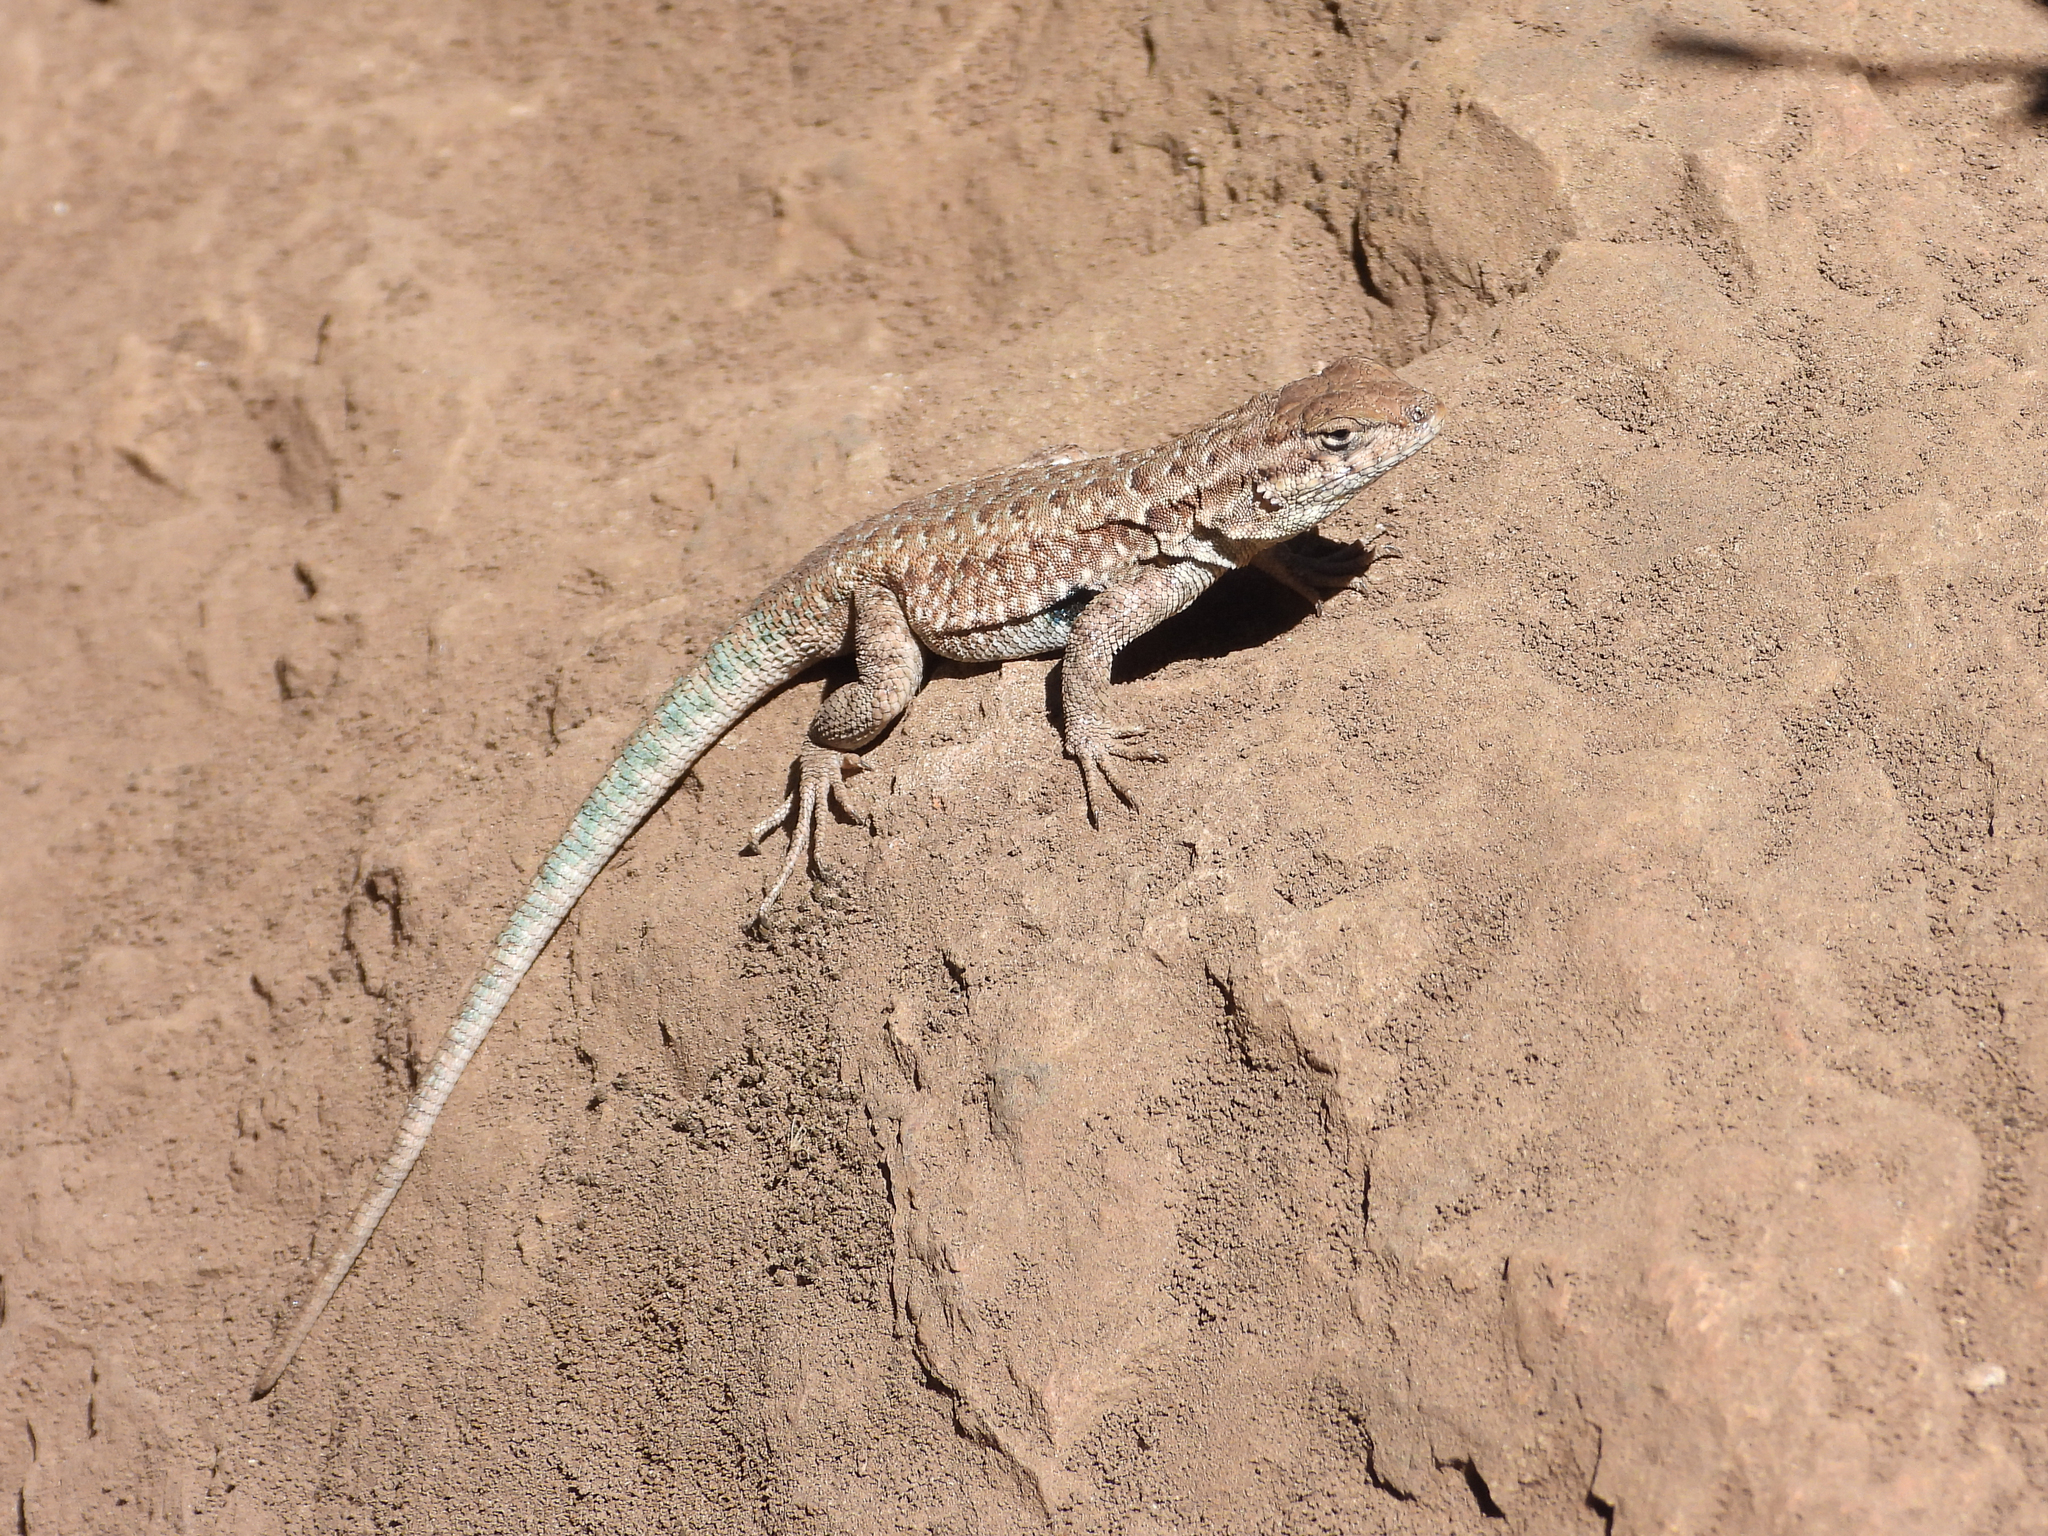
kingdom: Animalia
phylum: Chordata
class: Squamata
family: Phrynosomatidae
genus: Uta
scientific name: Uta stansburiana
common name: Side-blotched lizard
